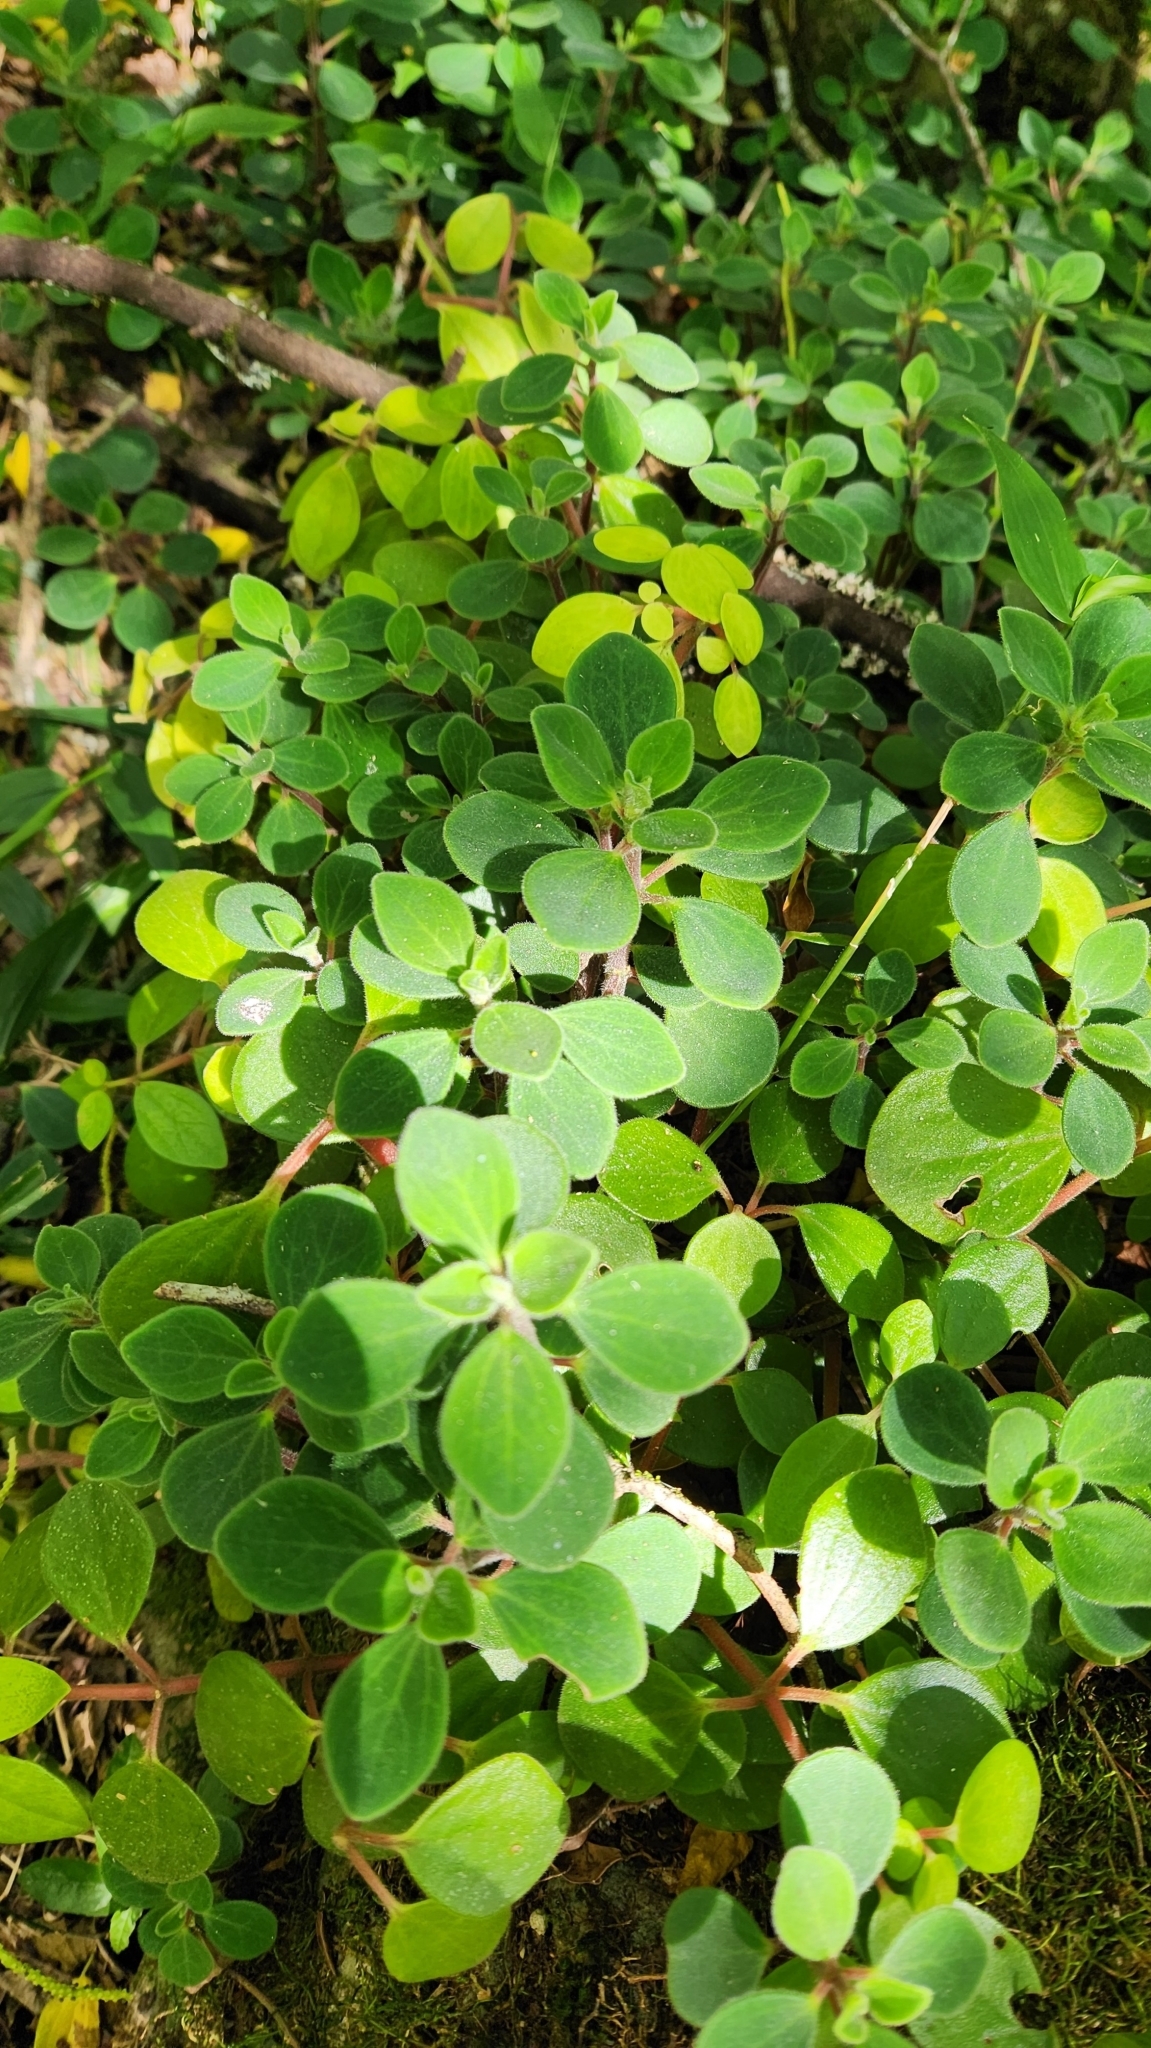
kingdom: Plantae
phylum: Tracheophyta
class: Magnoliopsida
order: Piperales
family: Piperaceae
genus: Peperomia
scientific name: Peperomia increscens
